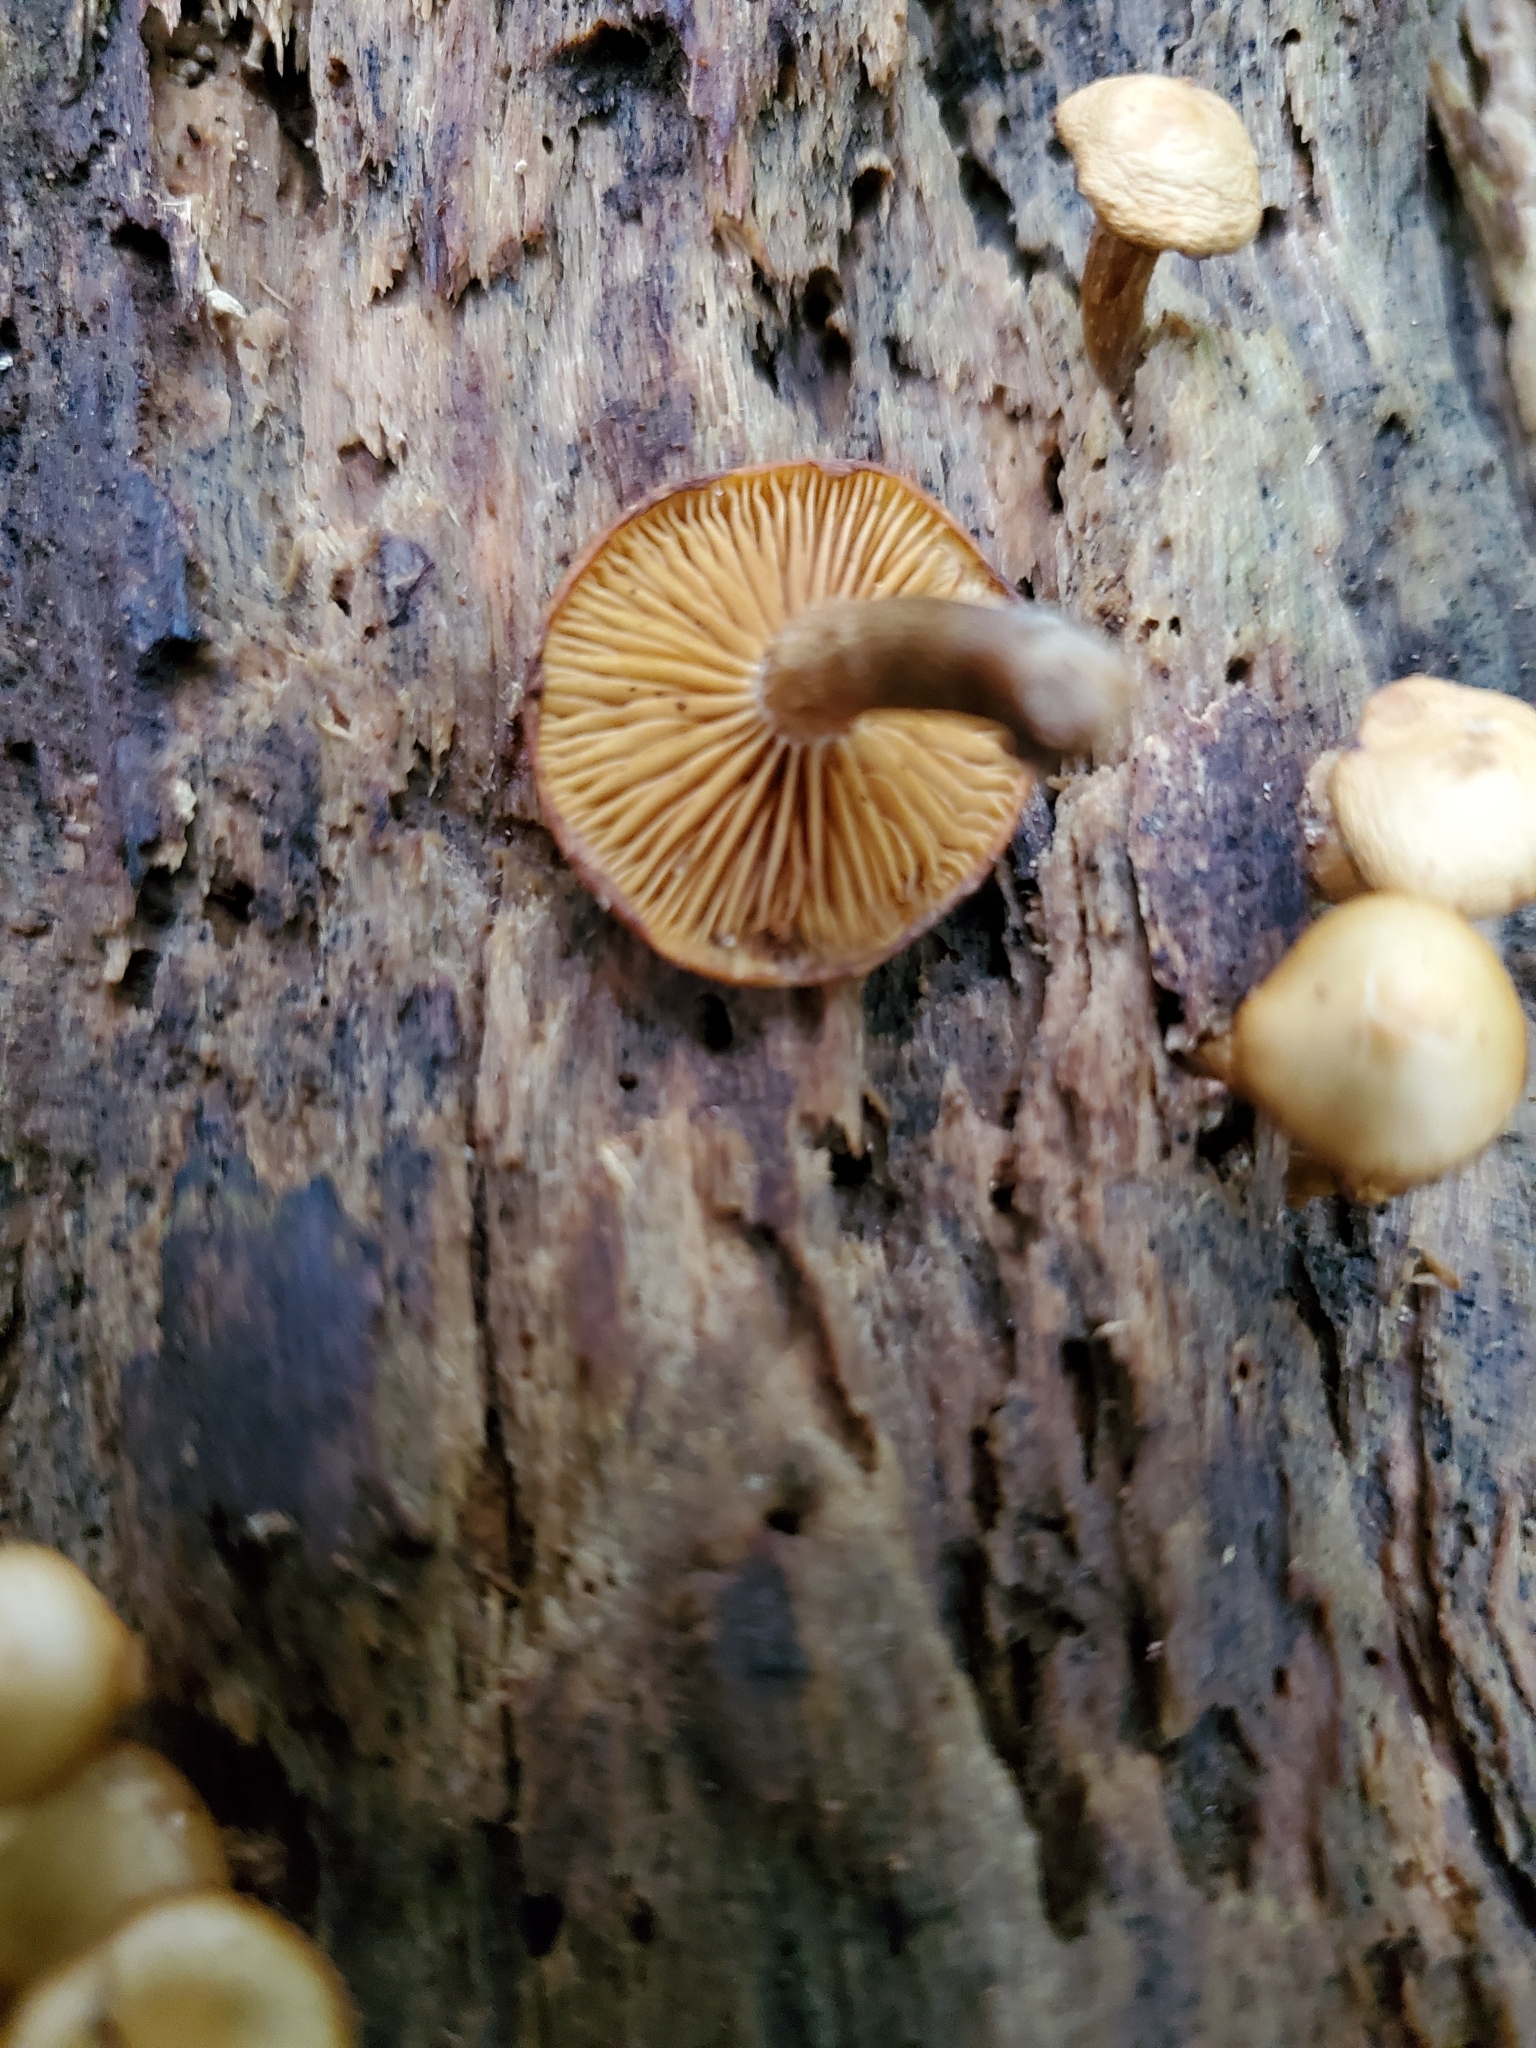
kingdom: Fungi
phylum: Basidiomycota
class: Agaricomycetes
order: Agaricales
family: Hymenogastraceae
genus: Galerina
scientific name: Galerina patagonica
